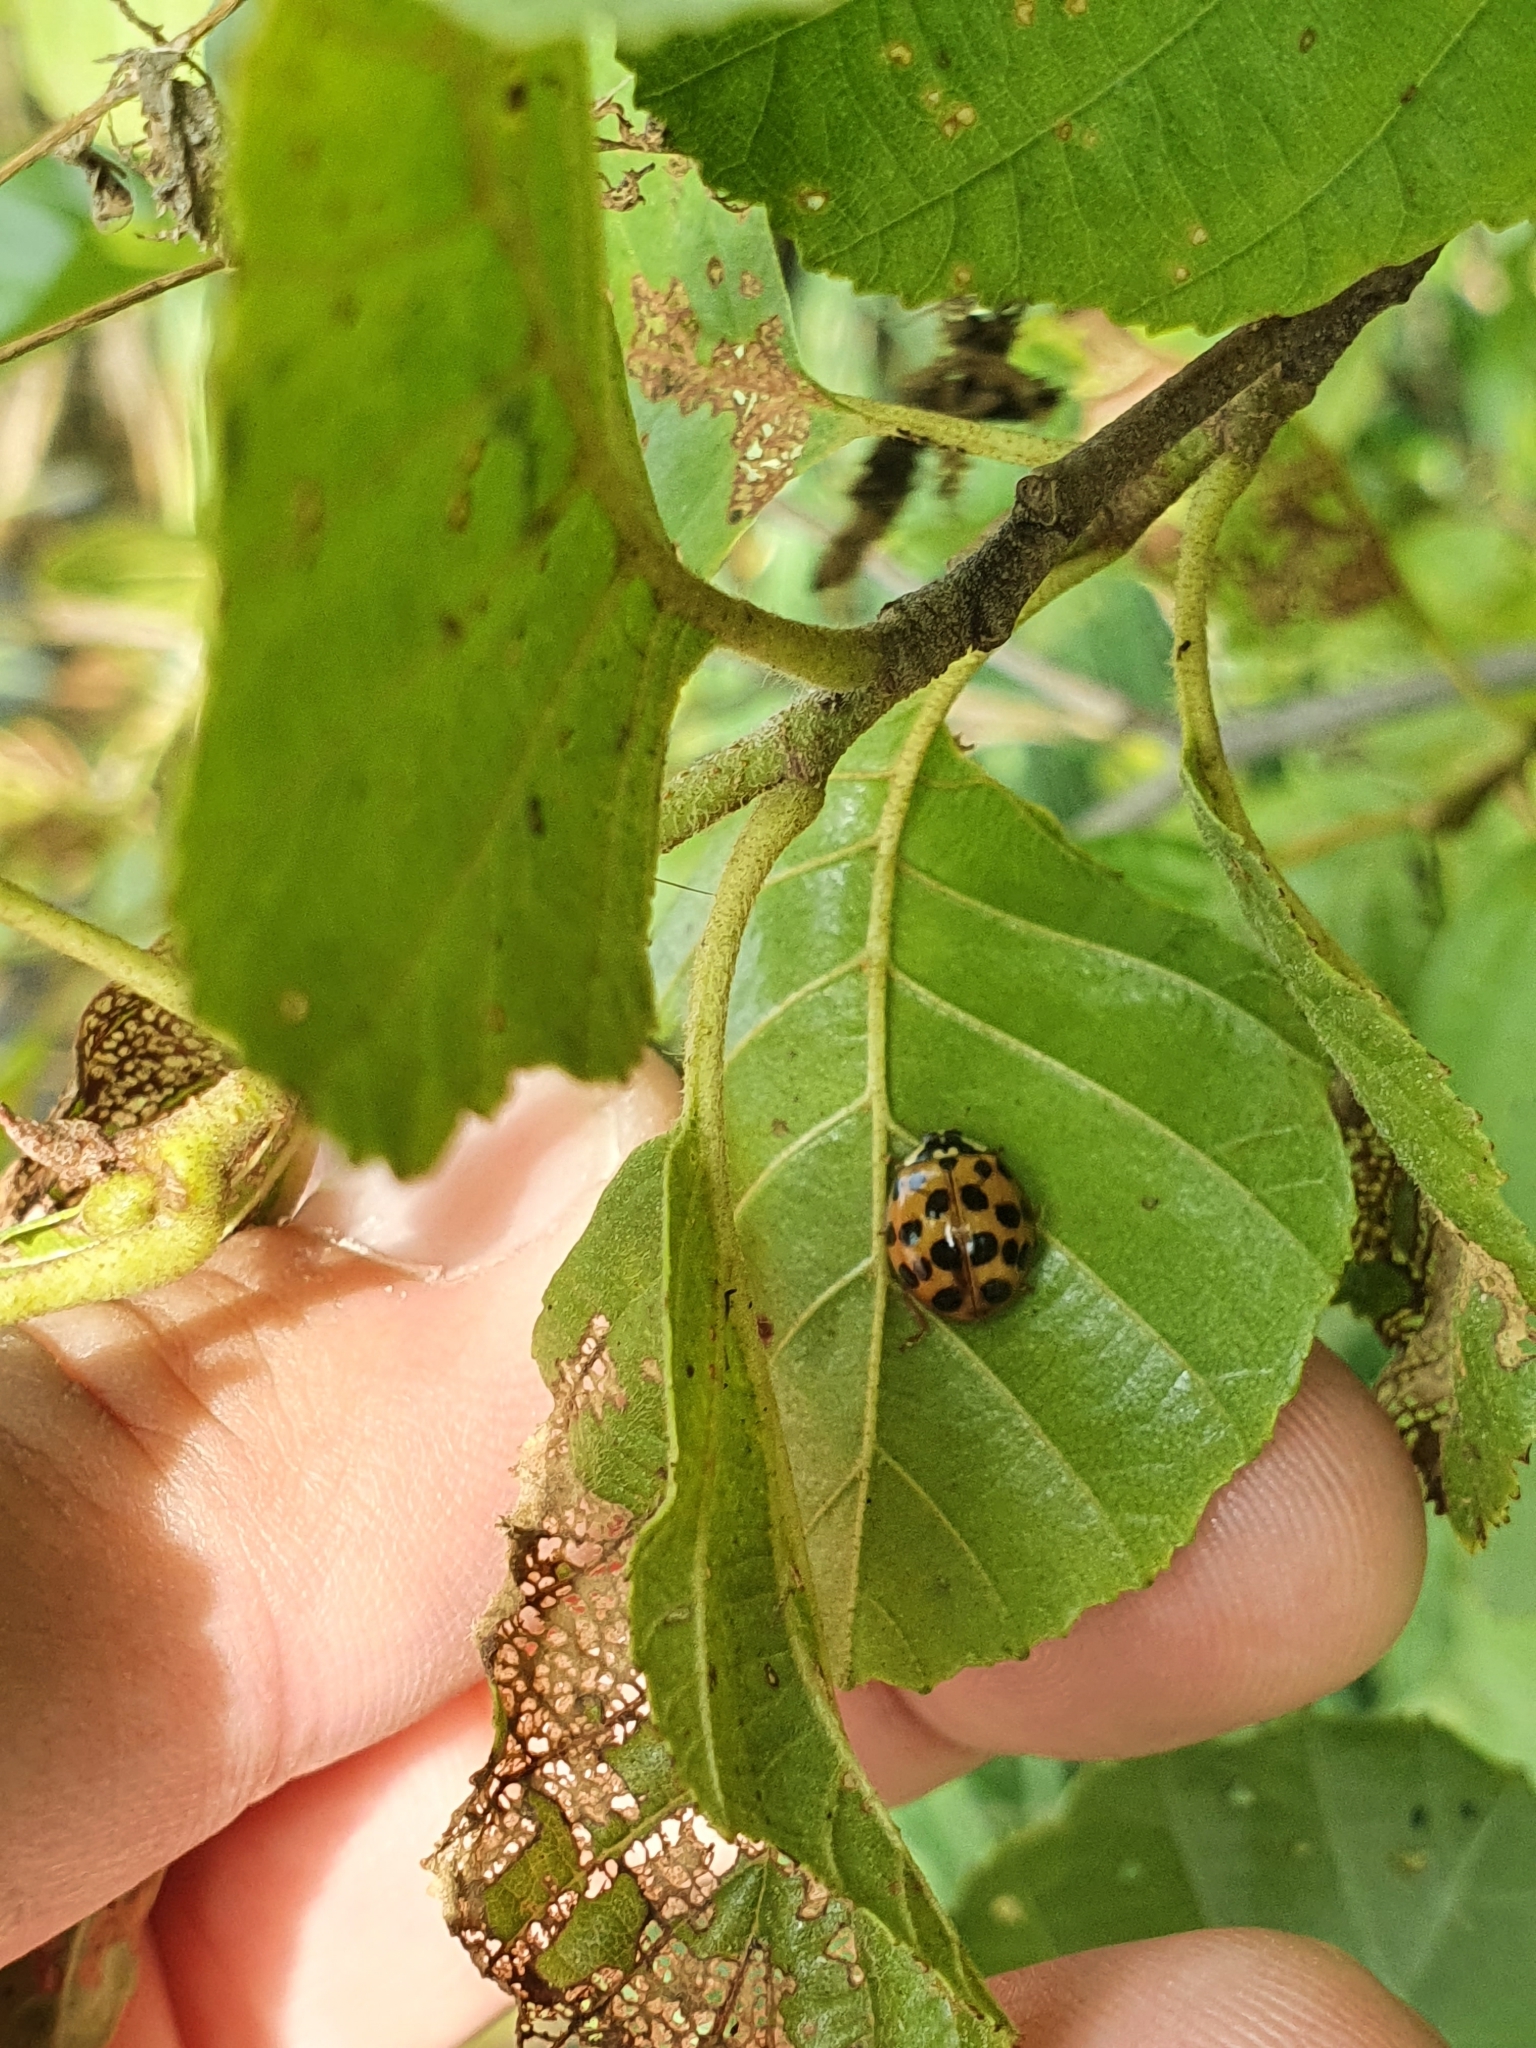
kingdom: Animalia
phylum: Arthropoda
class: Insecta
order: Coleoptera
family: Coccinellidae
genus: Harmonia
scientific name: Harmonia axyridis
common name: Harlequin ladybird
